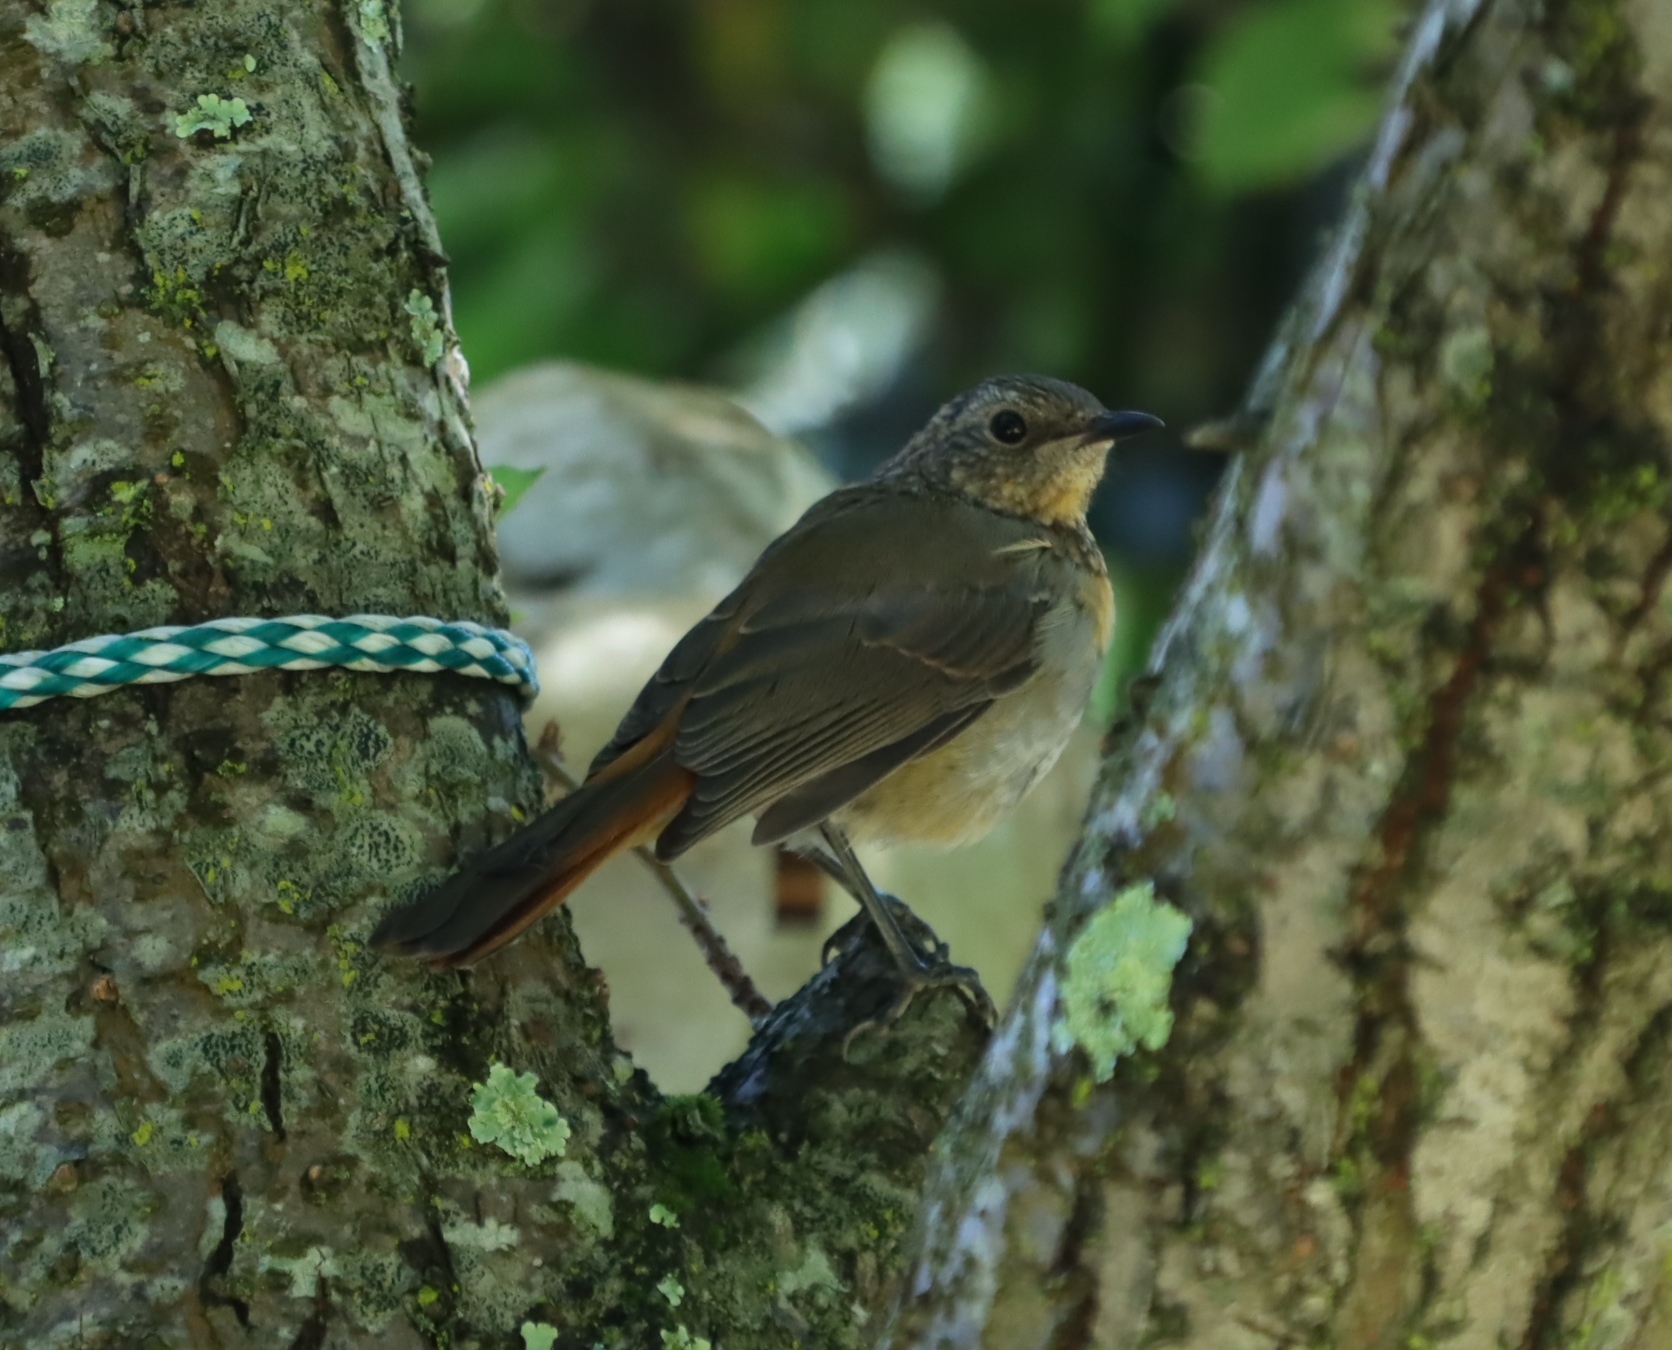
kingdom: Animalia
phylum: Chordata
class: Aves
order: Passeriformes
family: Muscicapidae
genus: Cossypha
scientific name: Cossypha caffra
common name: Cape robin-chat
